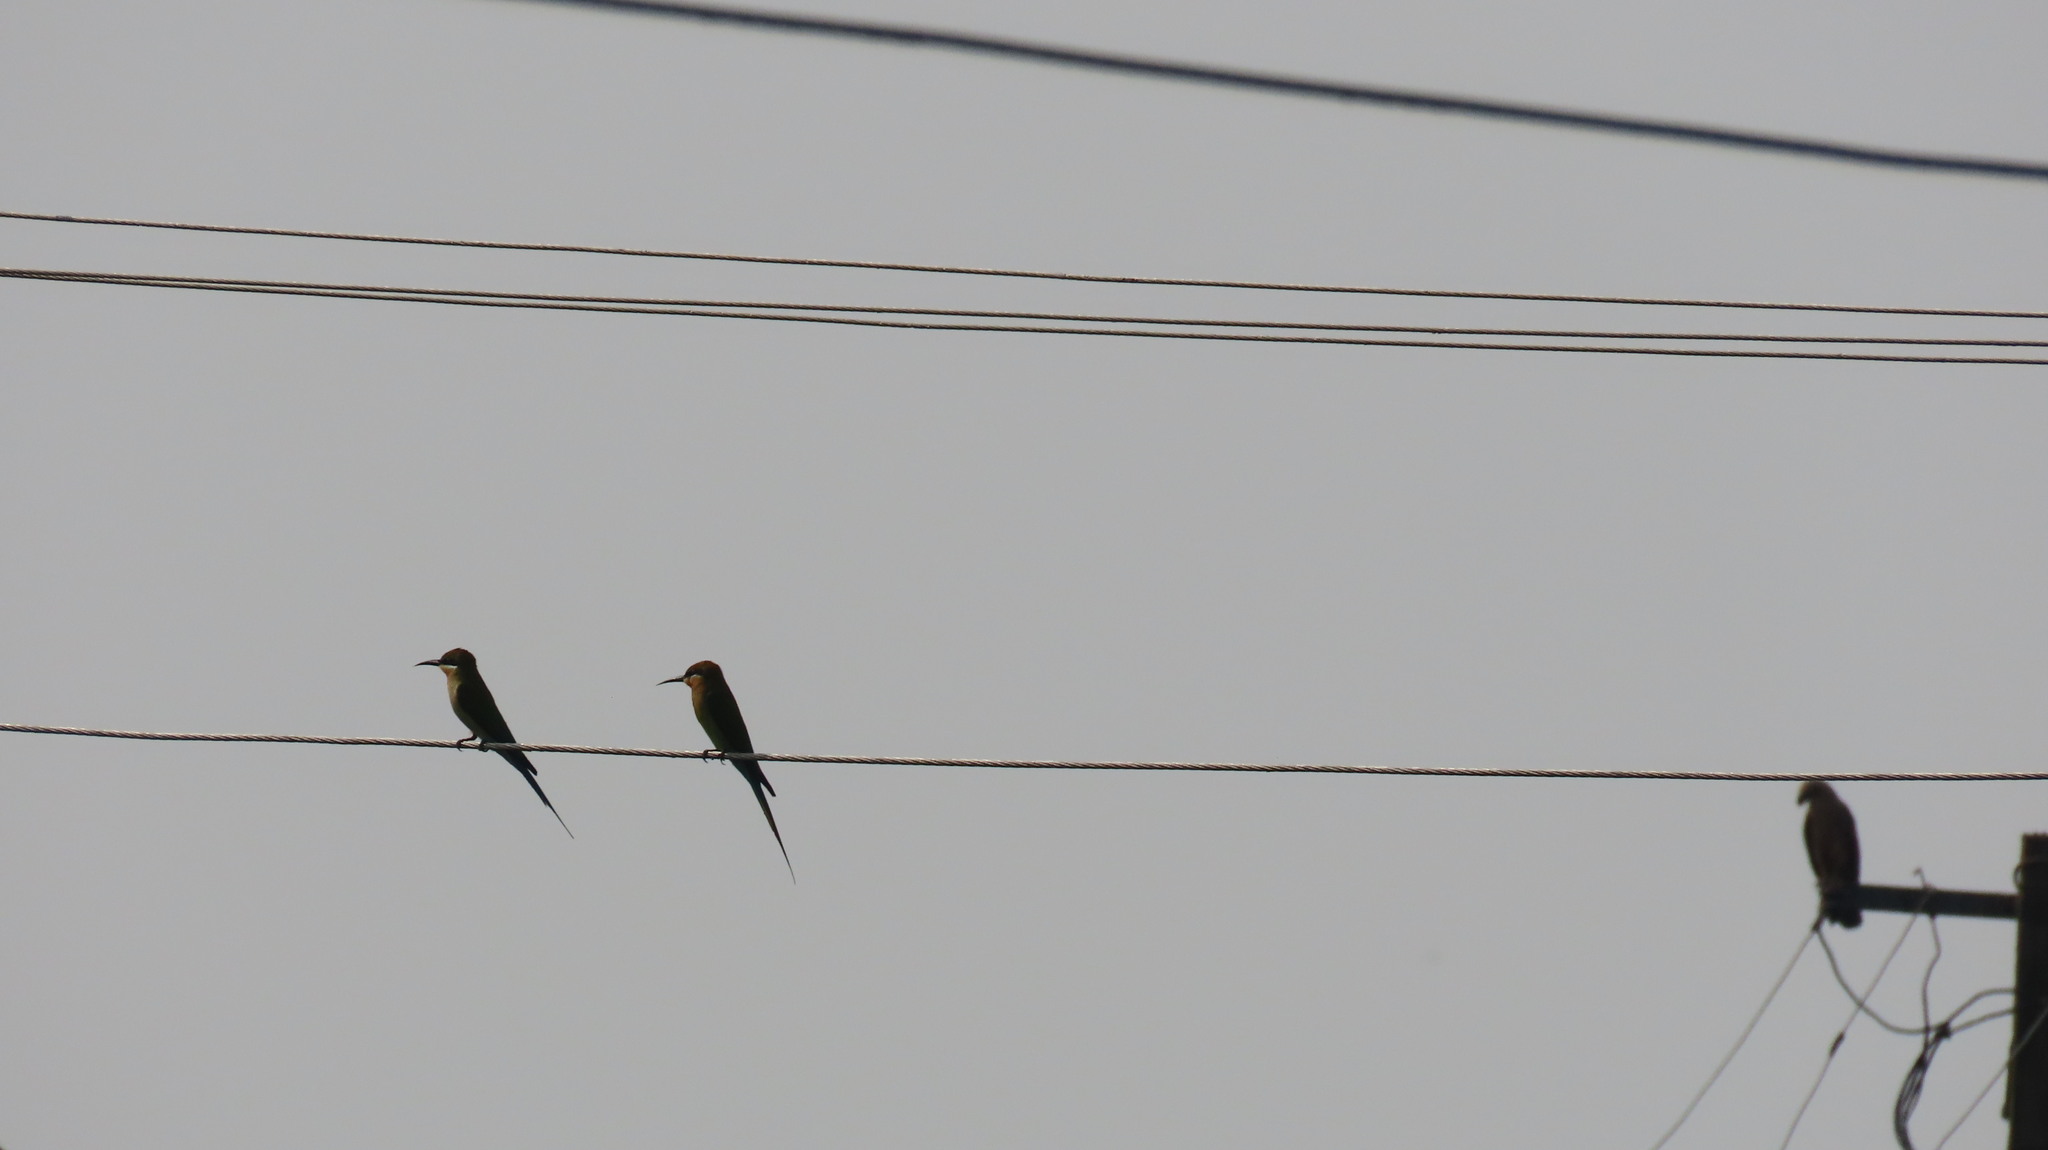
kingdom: Animalia
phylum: Chordata
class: Aves
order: Coraciiformes
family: Meropidae
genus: Merops
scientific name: Merops philippinus
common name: Blue-tailed bee-eater
